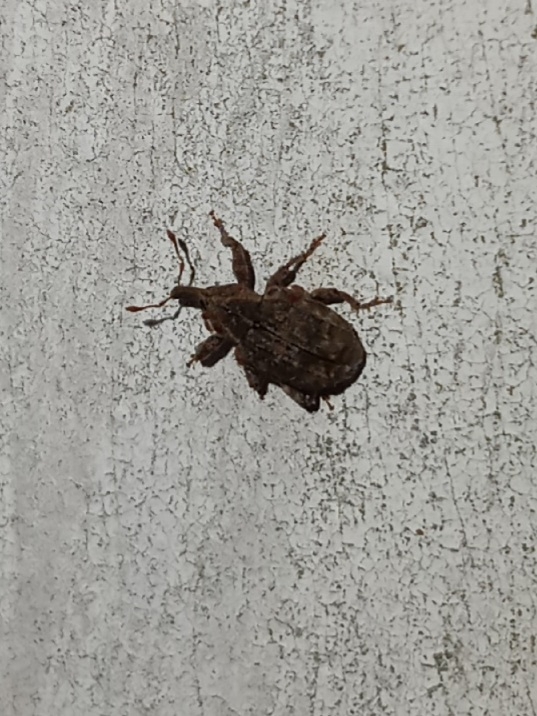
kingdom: Animalia
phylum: Arthropoda
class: Insecta
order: Coleoptera
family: Curculionidae
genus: Conotrachelus
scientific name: Conotrachelus seniculus
